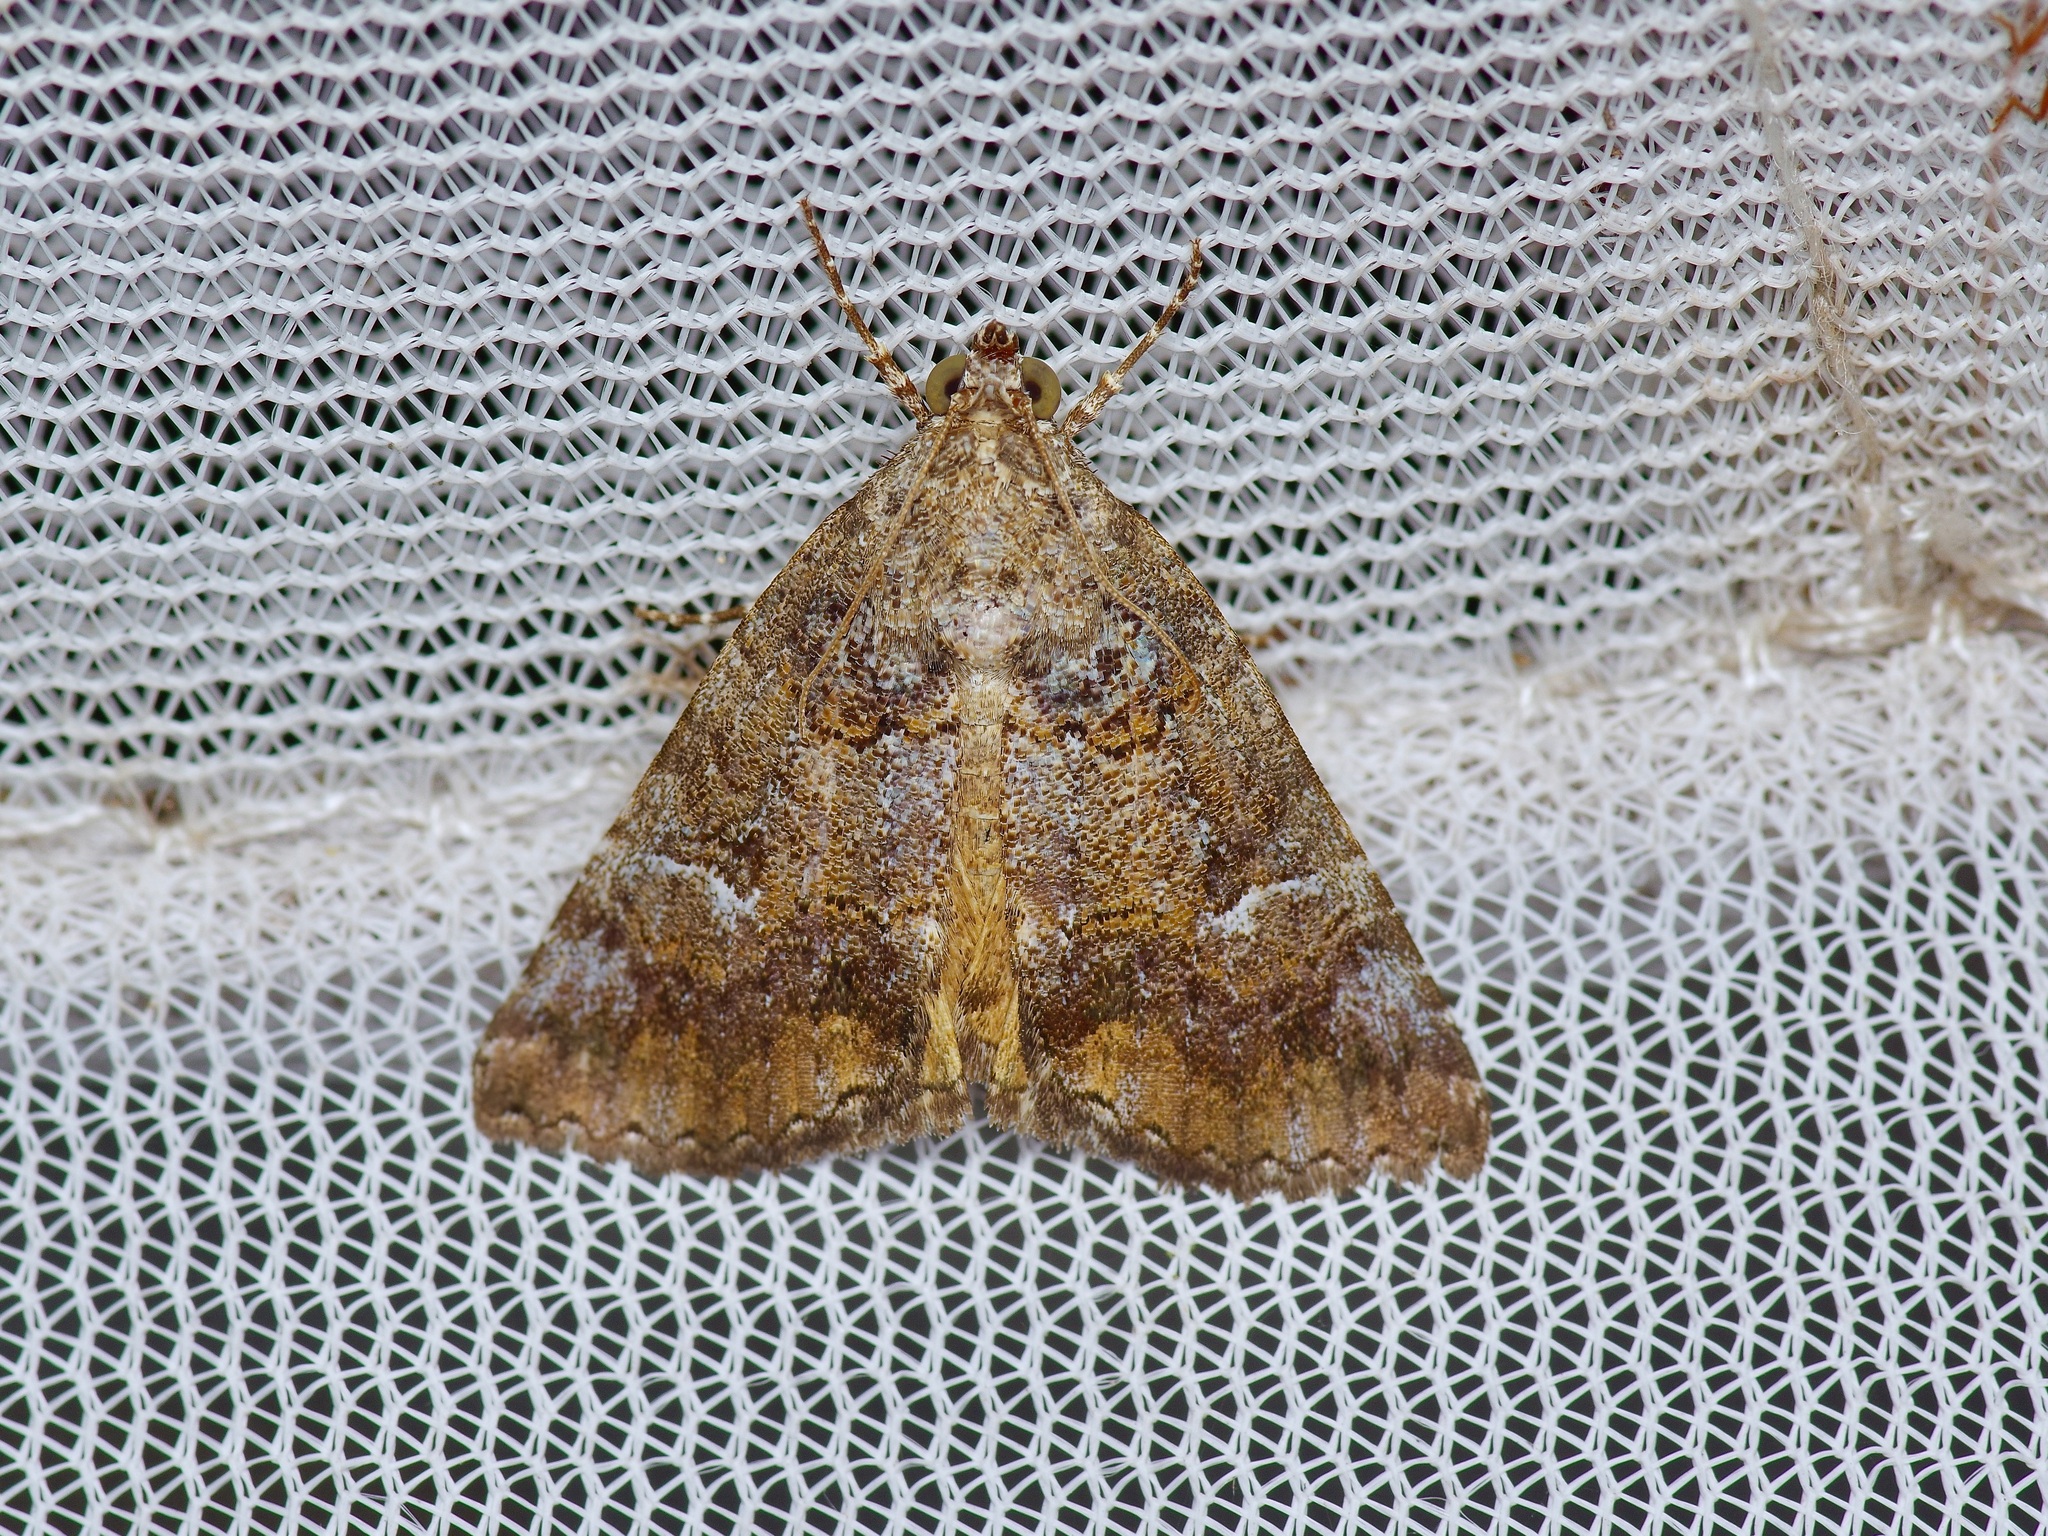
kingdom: Animalia
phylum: Arthropoda
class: Insecta
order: Lepidoptera
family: Erebidae
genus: Eubolina
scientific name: Eubolina impartialis
